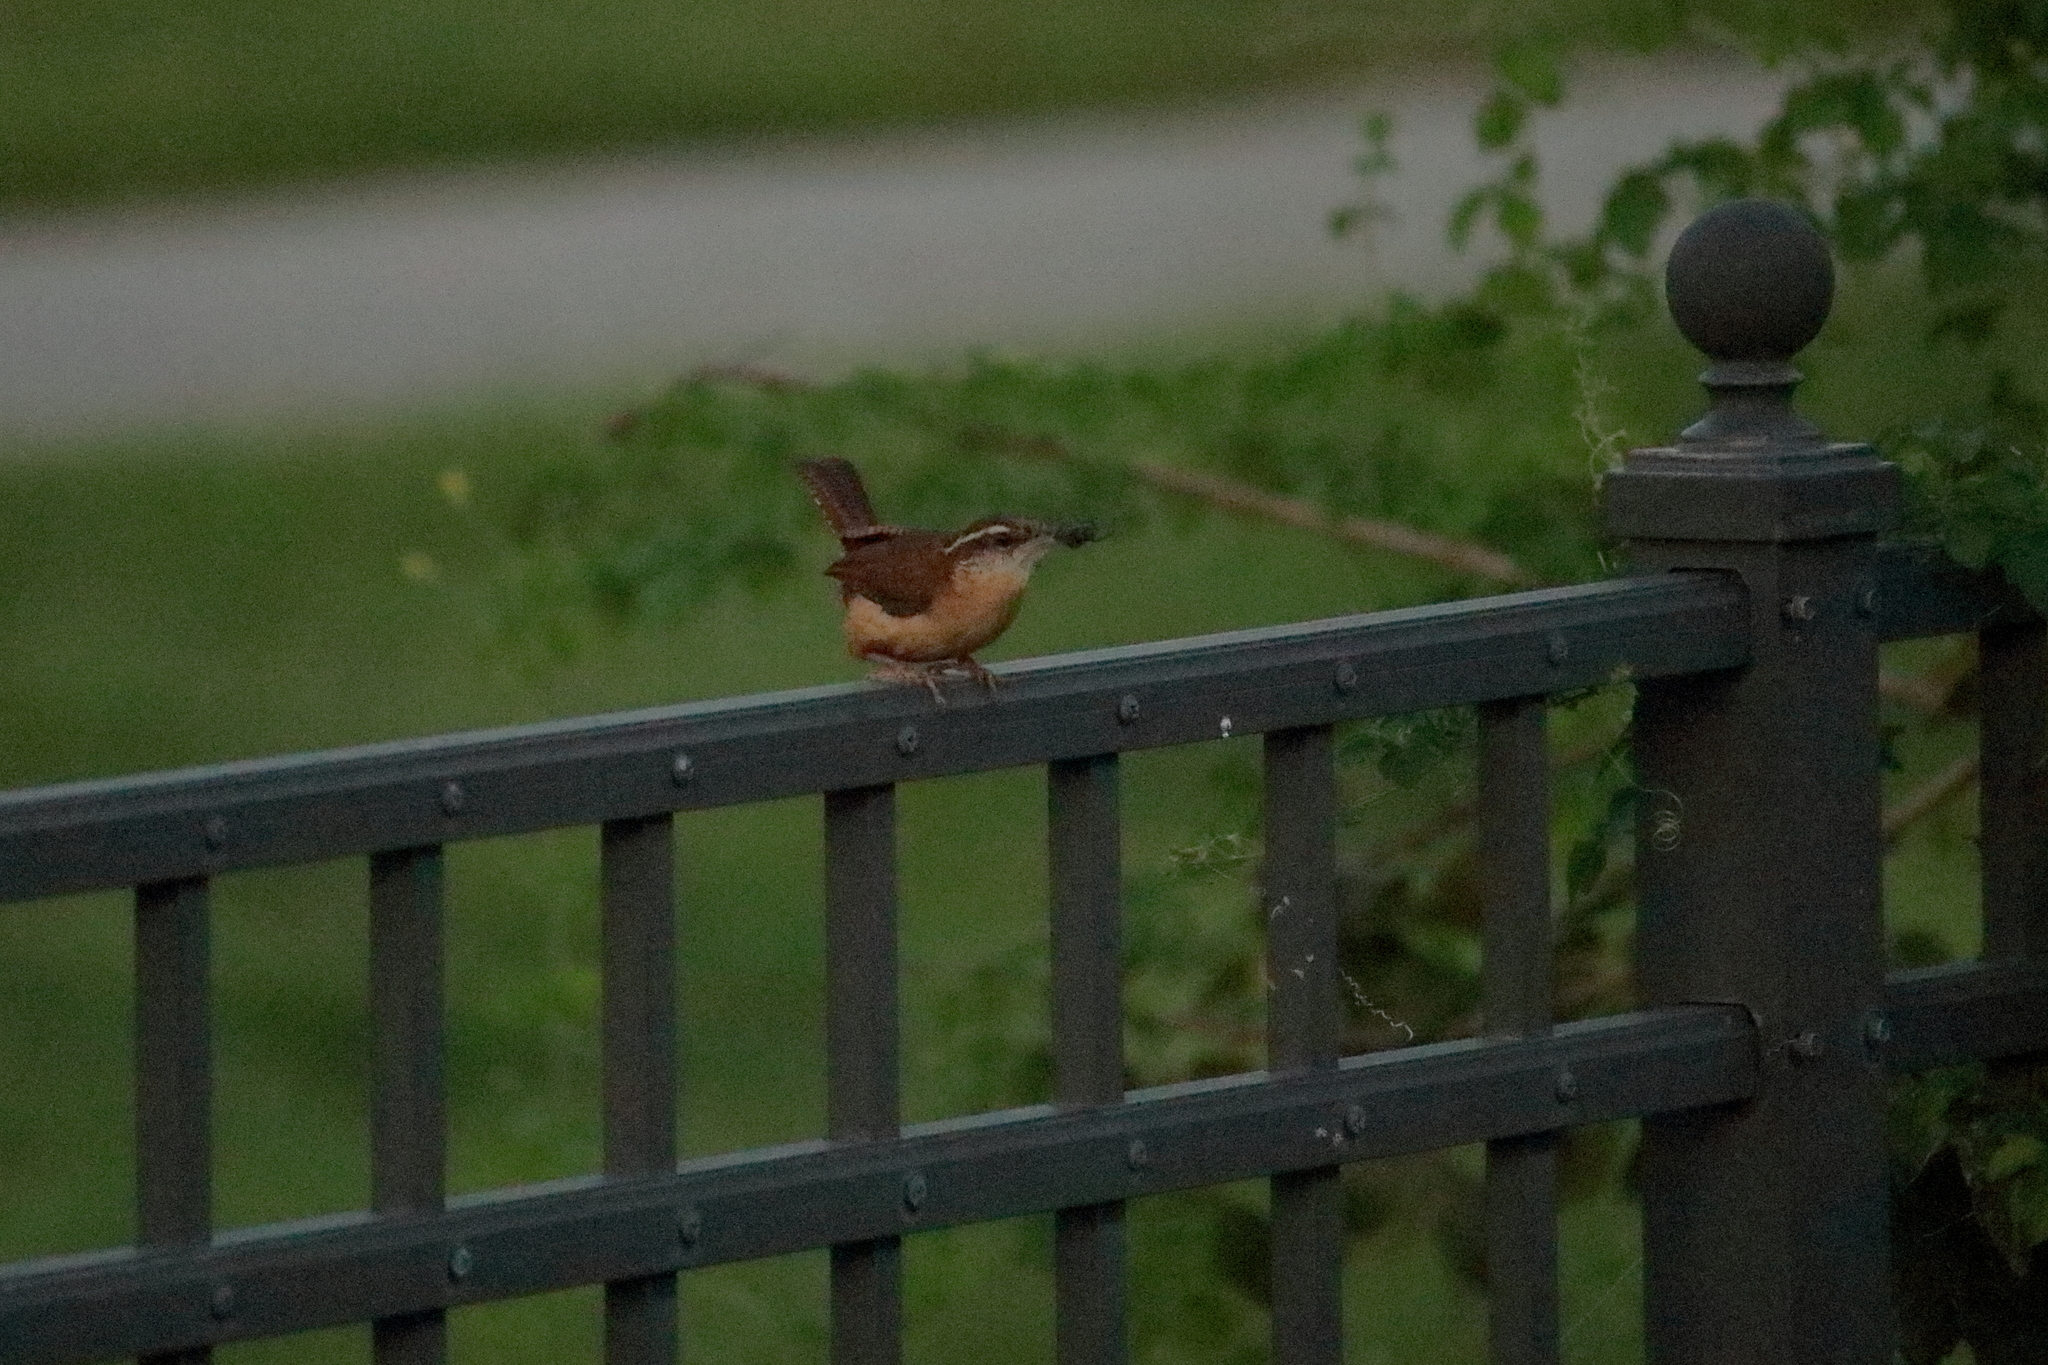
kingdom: Animalia
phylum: Chordata
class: Aves
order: Passeriformes
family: Troglodytidae
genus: Thryothorus
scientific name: Thryothorus ludovicianus
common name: Carolina wren
